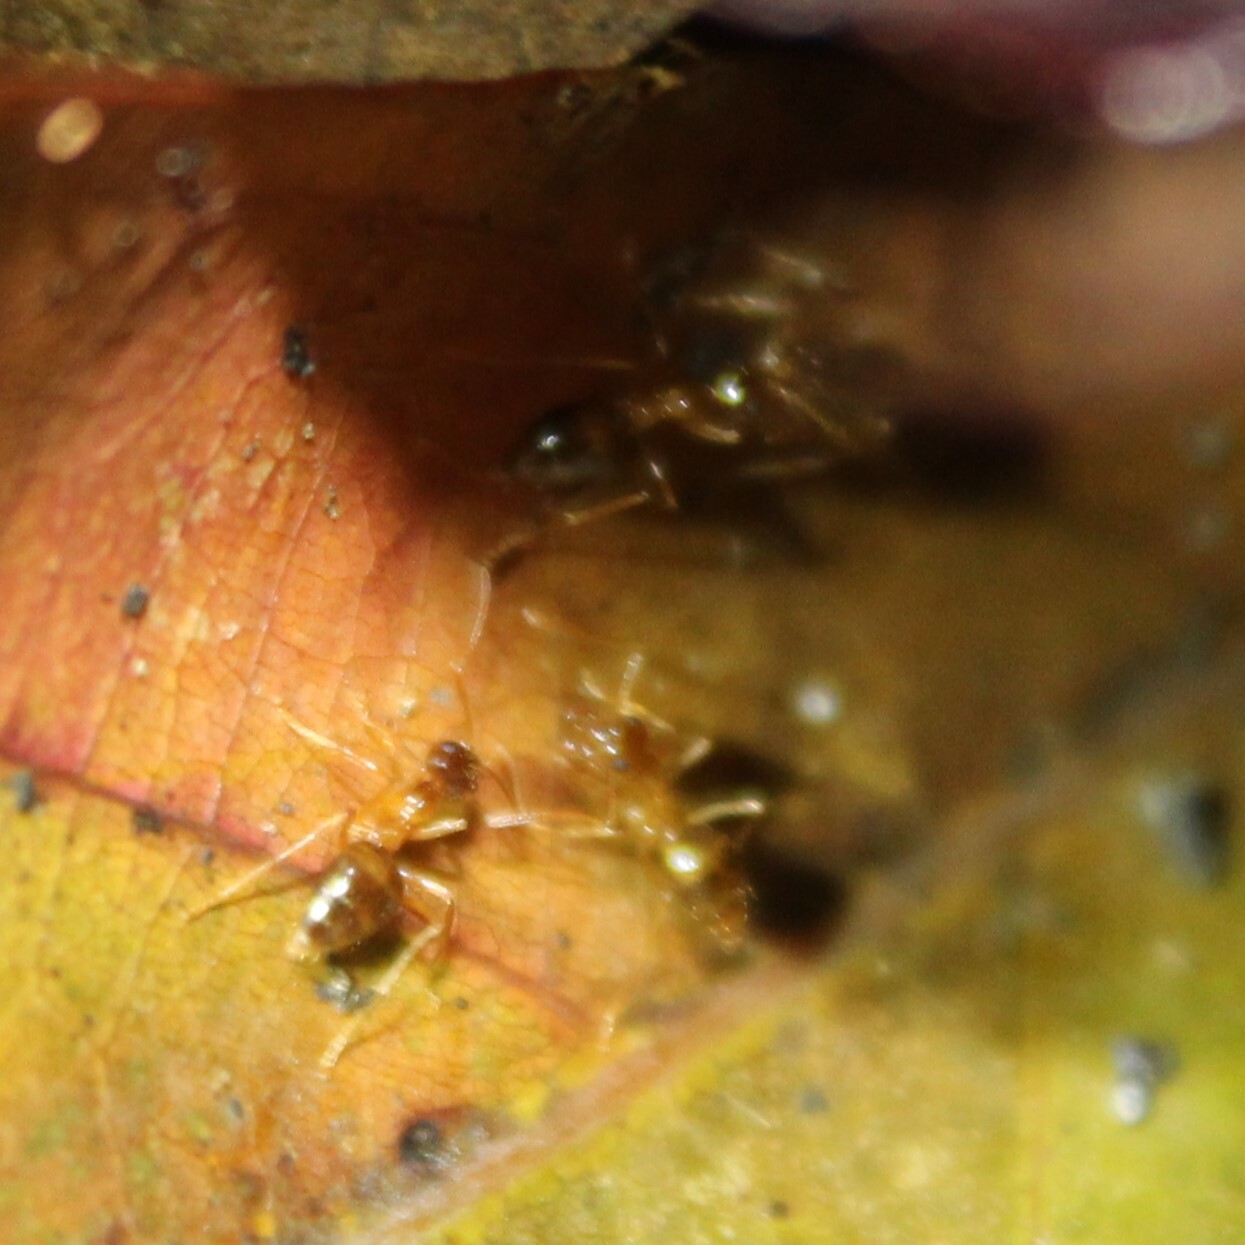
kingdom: Animalia
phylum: Arthropoda
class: Insecta
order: Hymenoptera
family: Formicidae
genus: Prenolepis
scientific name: Prenolepis imparis
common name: Small honey ant
